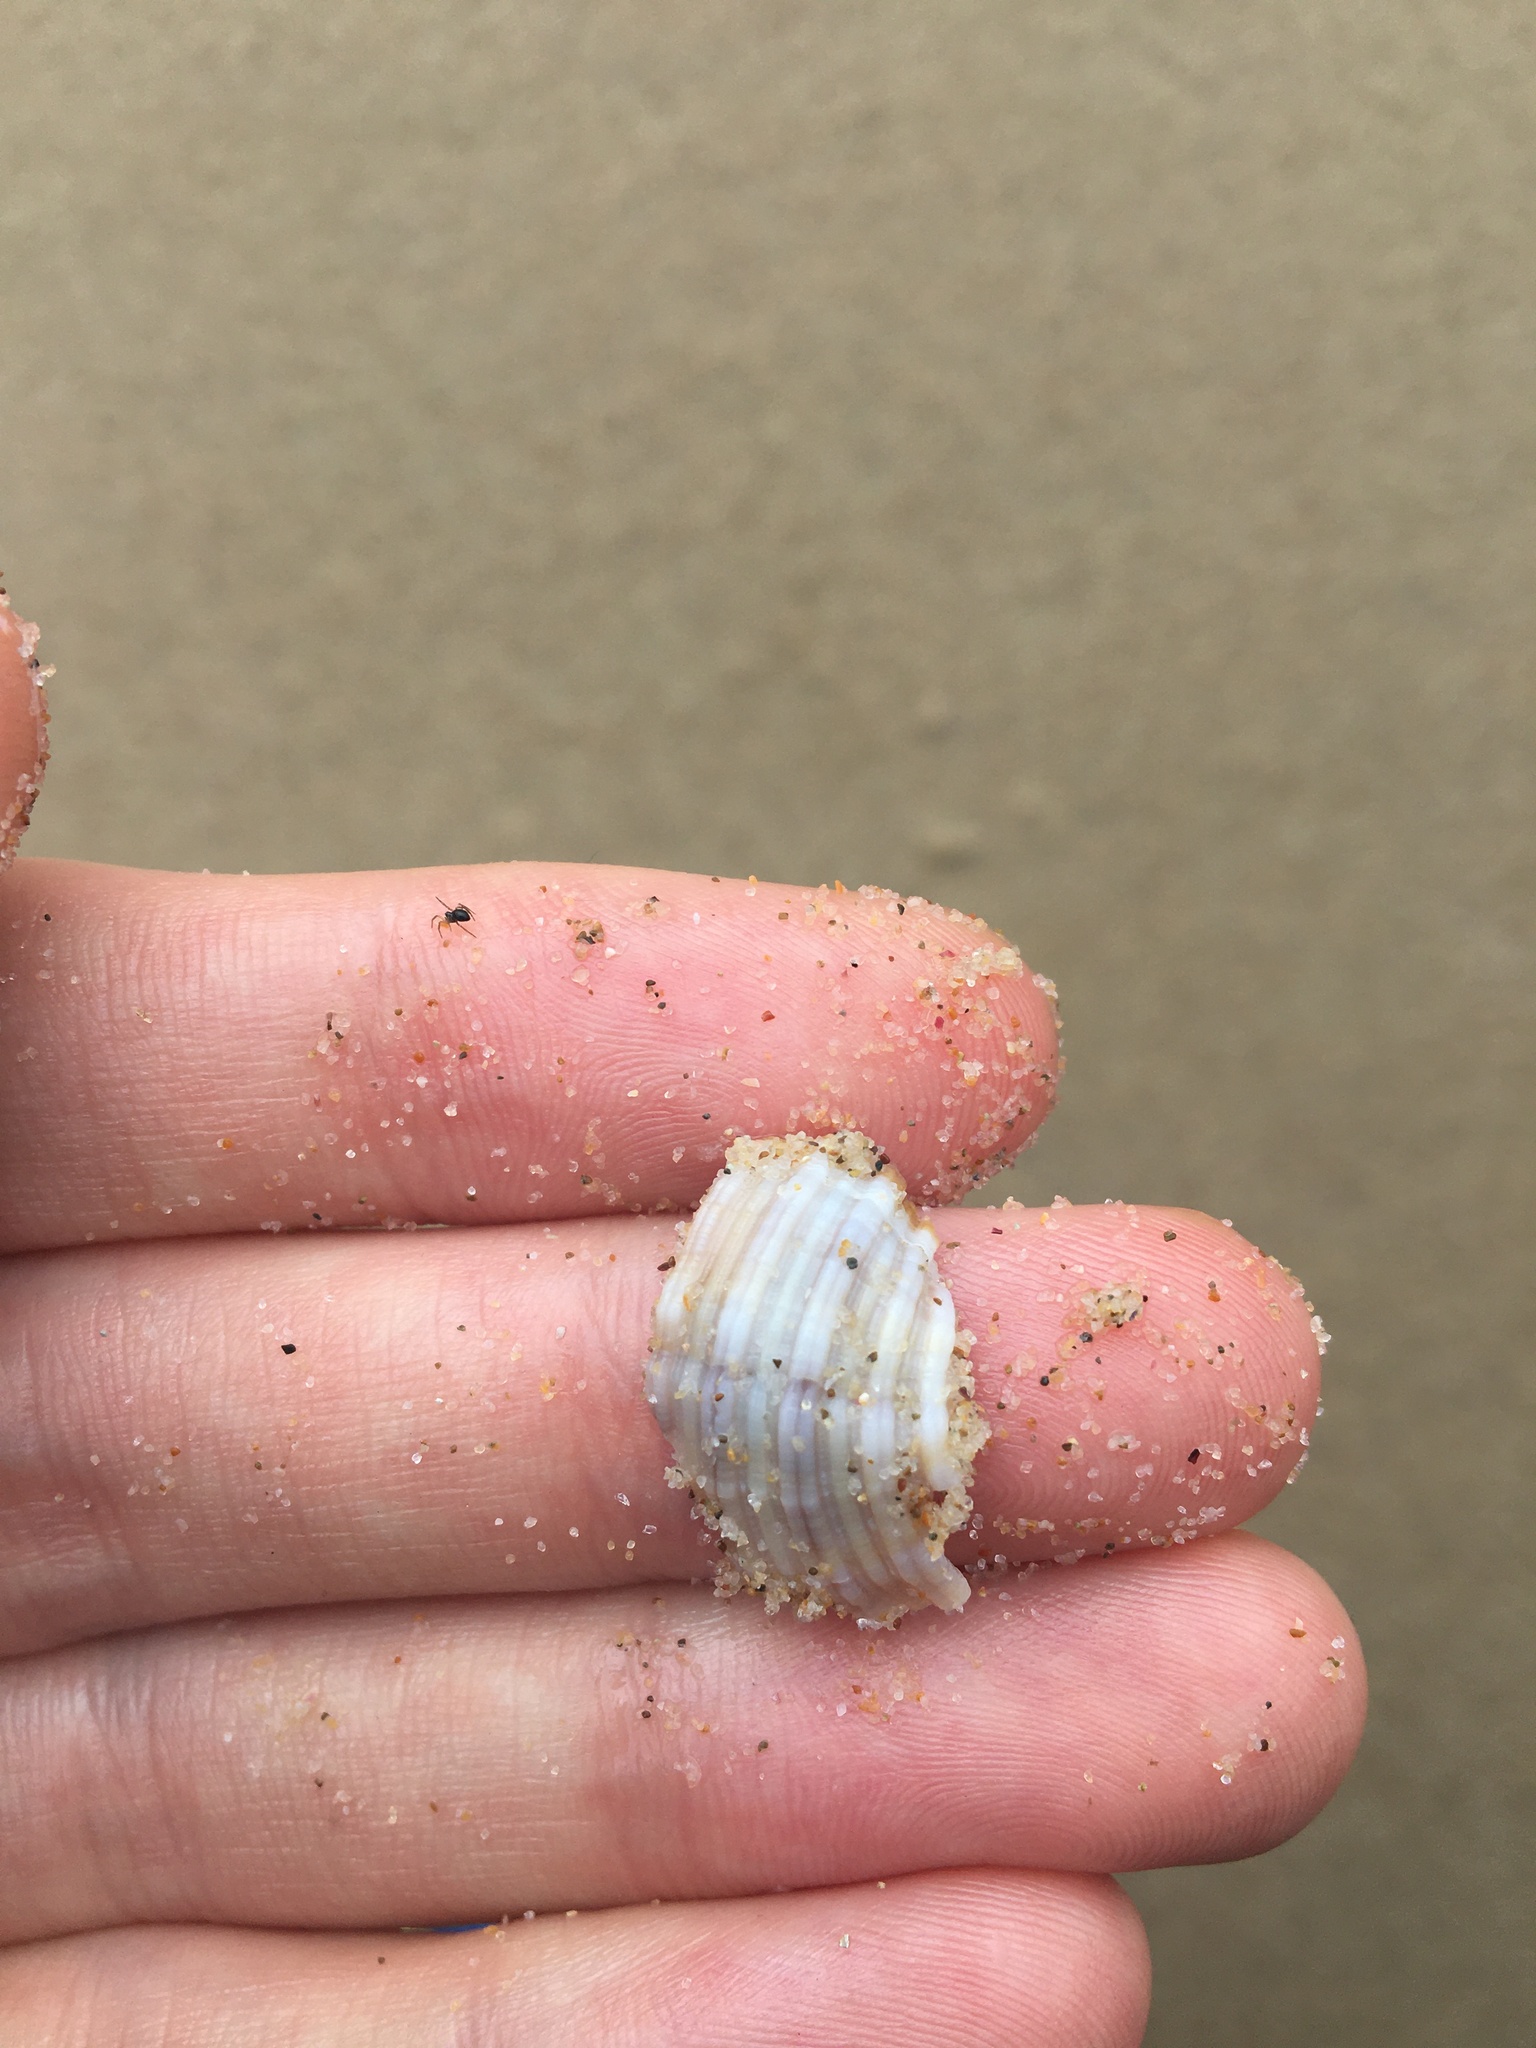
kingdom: Animalia
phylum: Mollusca
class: Gastropoda
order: Littorinimorpha
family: Cymatiidae
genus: Cabestana
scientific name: Cabestana spengleri
